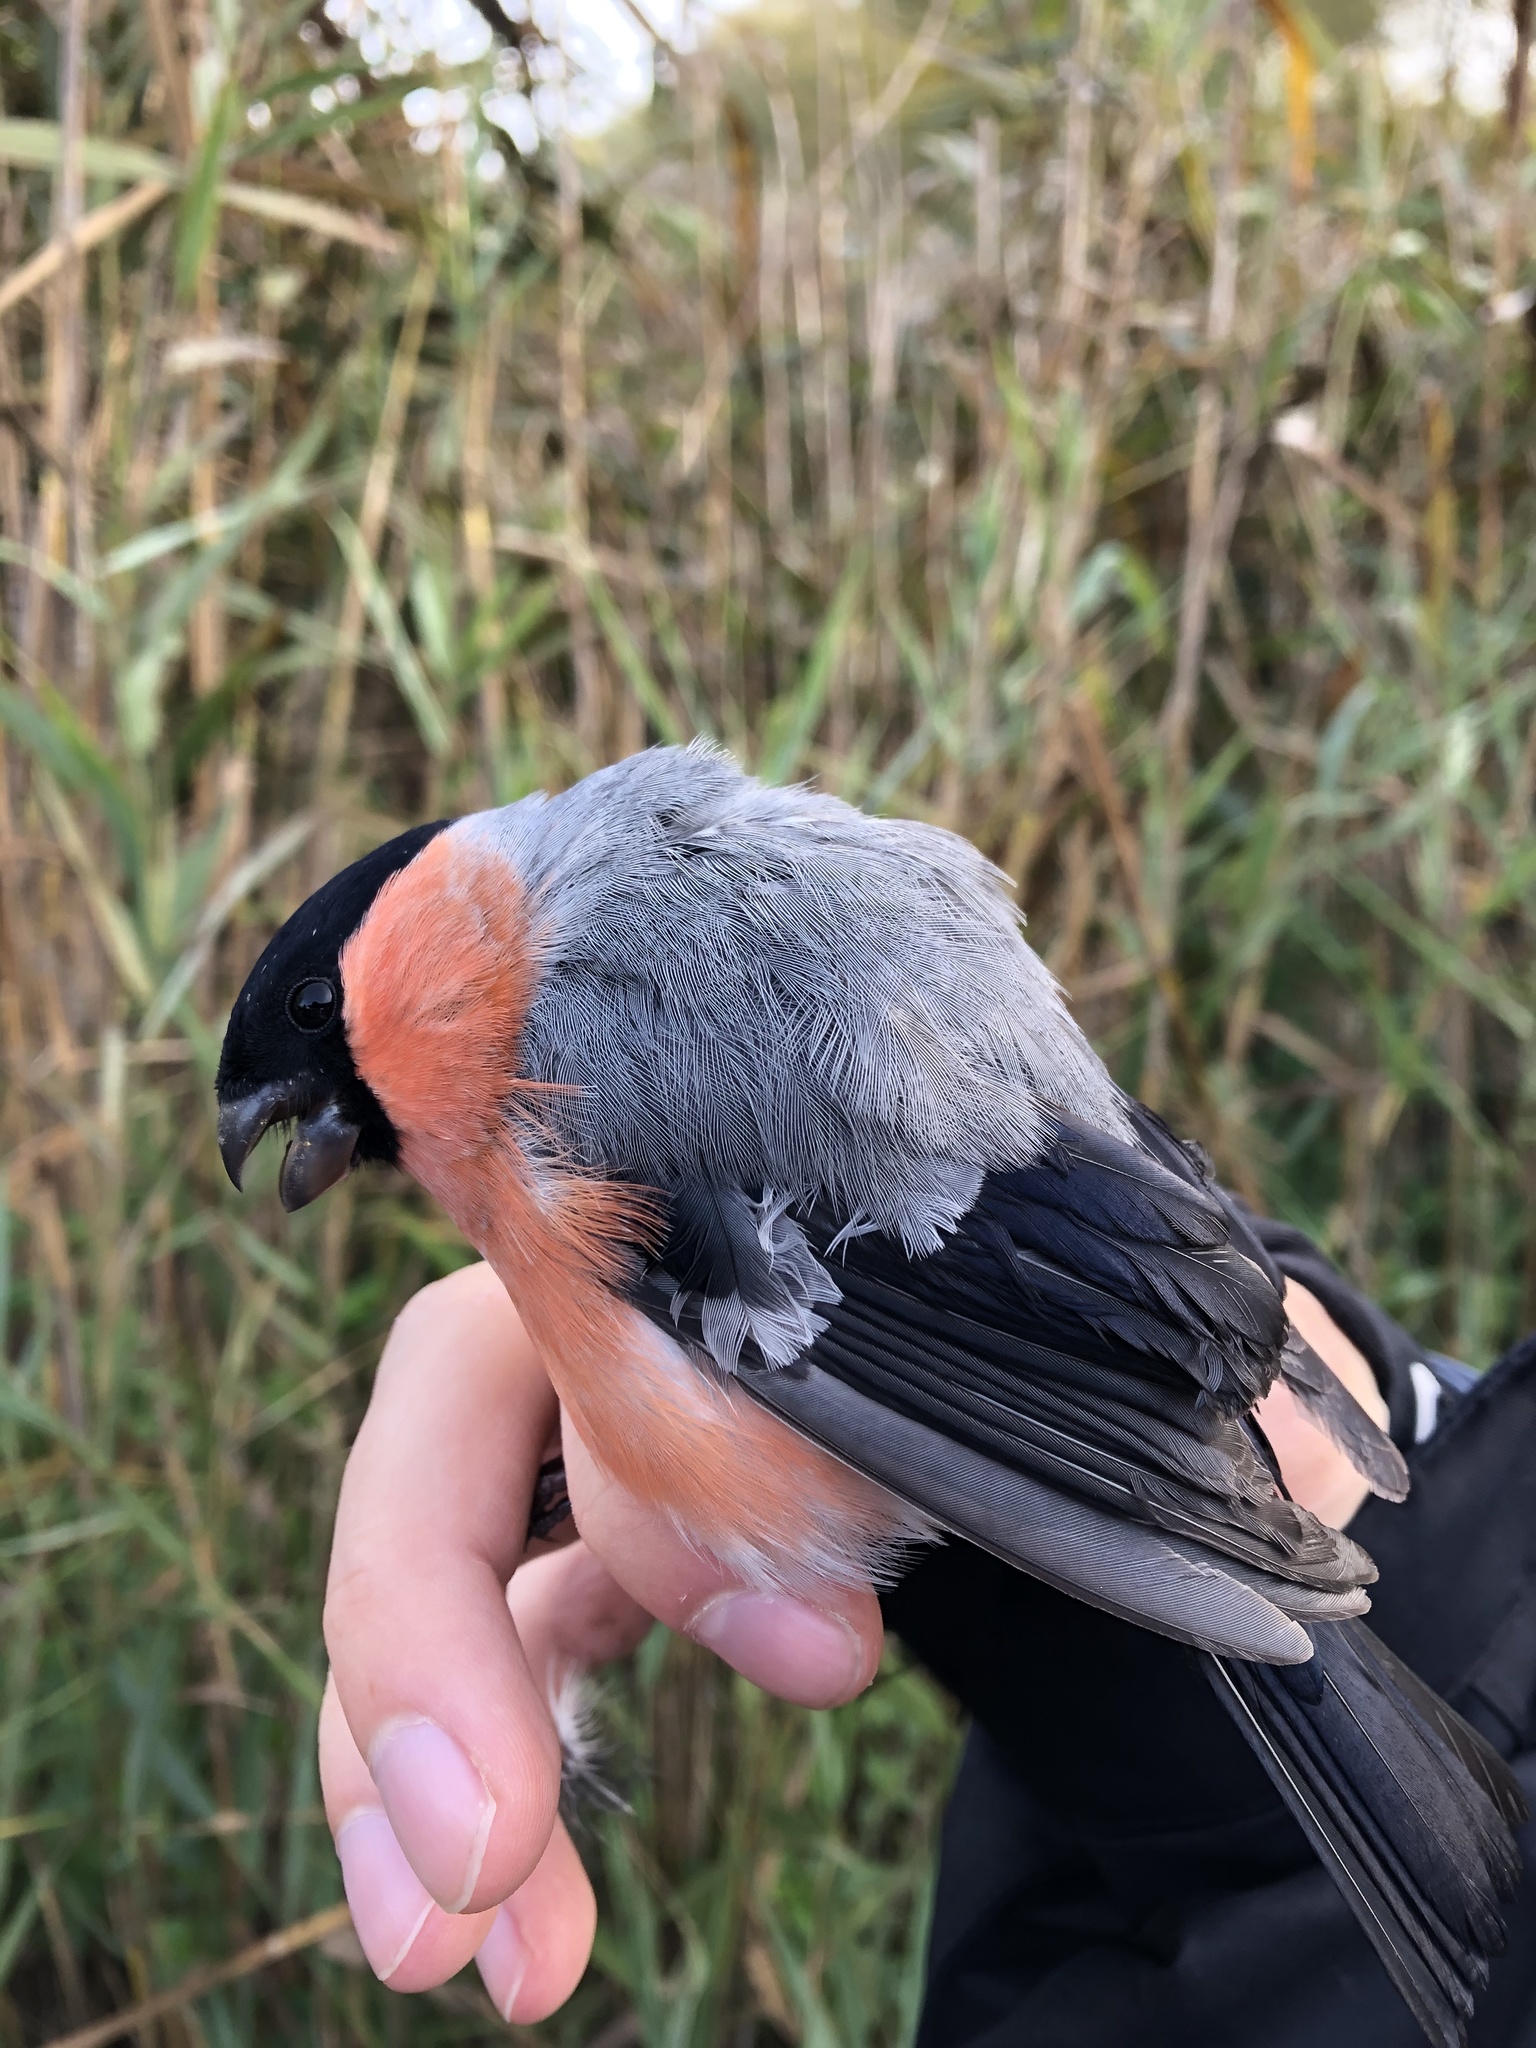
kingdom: Animalia
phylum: Chordata
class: Aves
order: Passeriformes
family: Fringillidae
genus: Pyrrhula
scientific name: Pyrrhula pyrrhula
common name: Eurasian bullfinch
